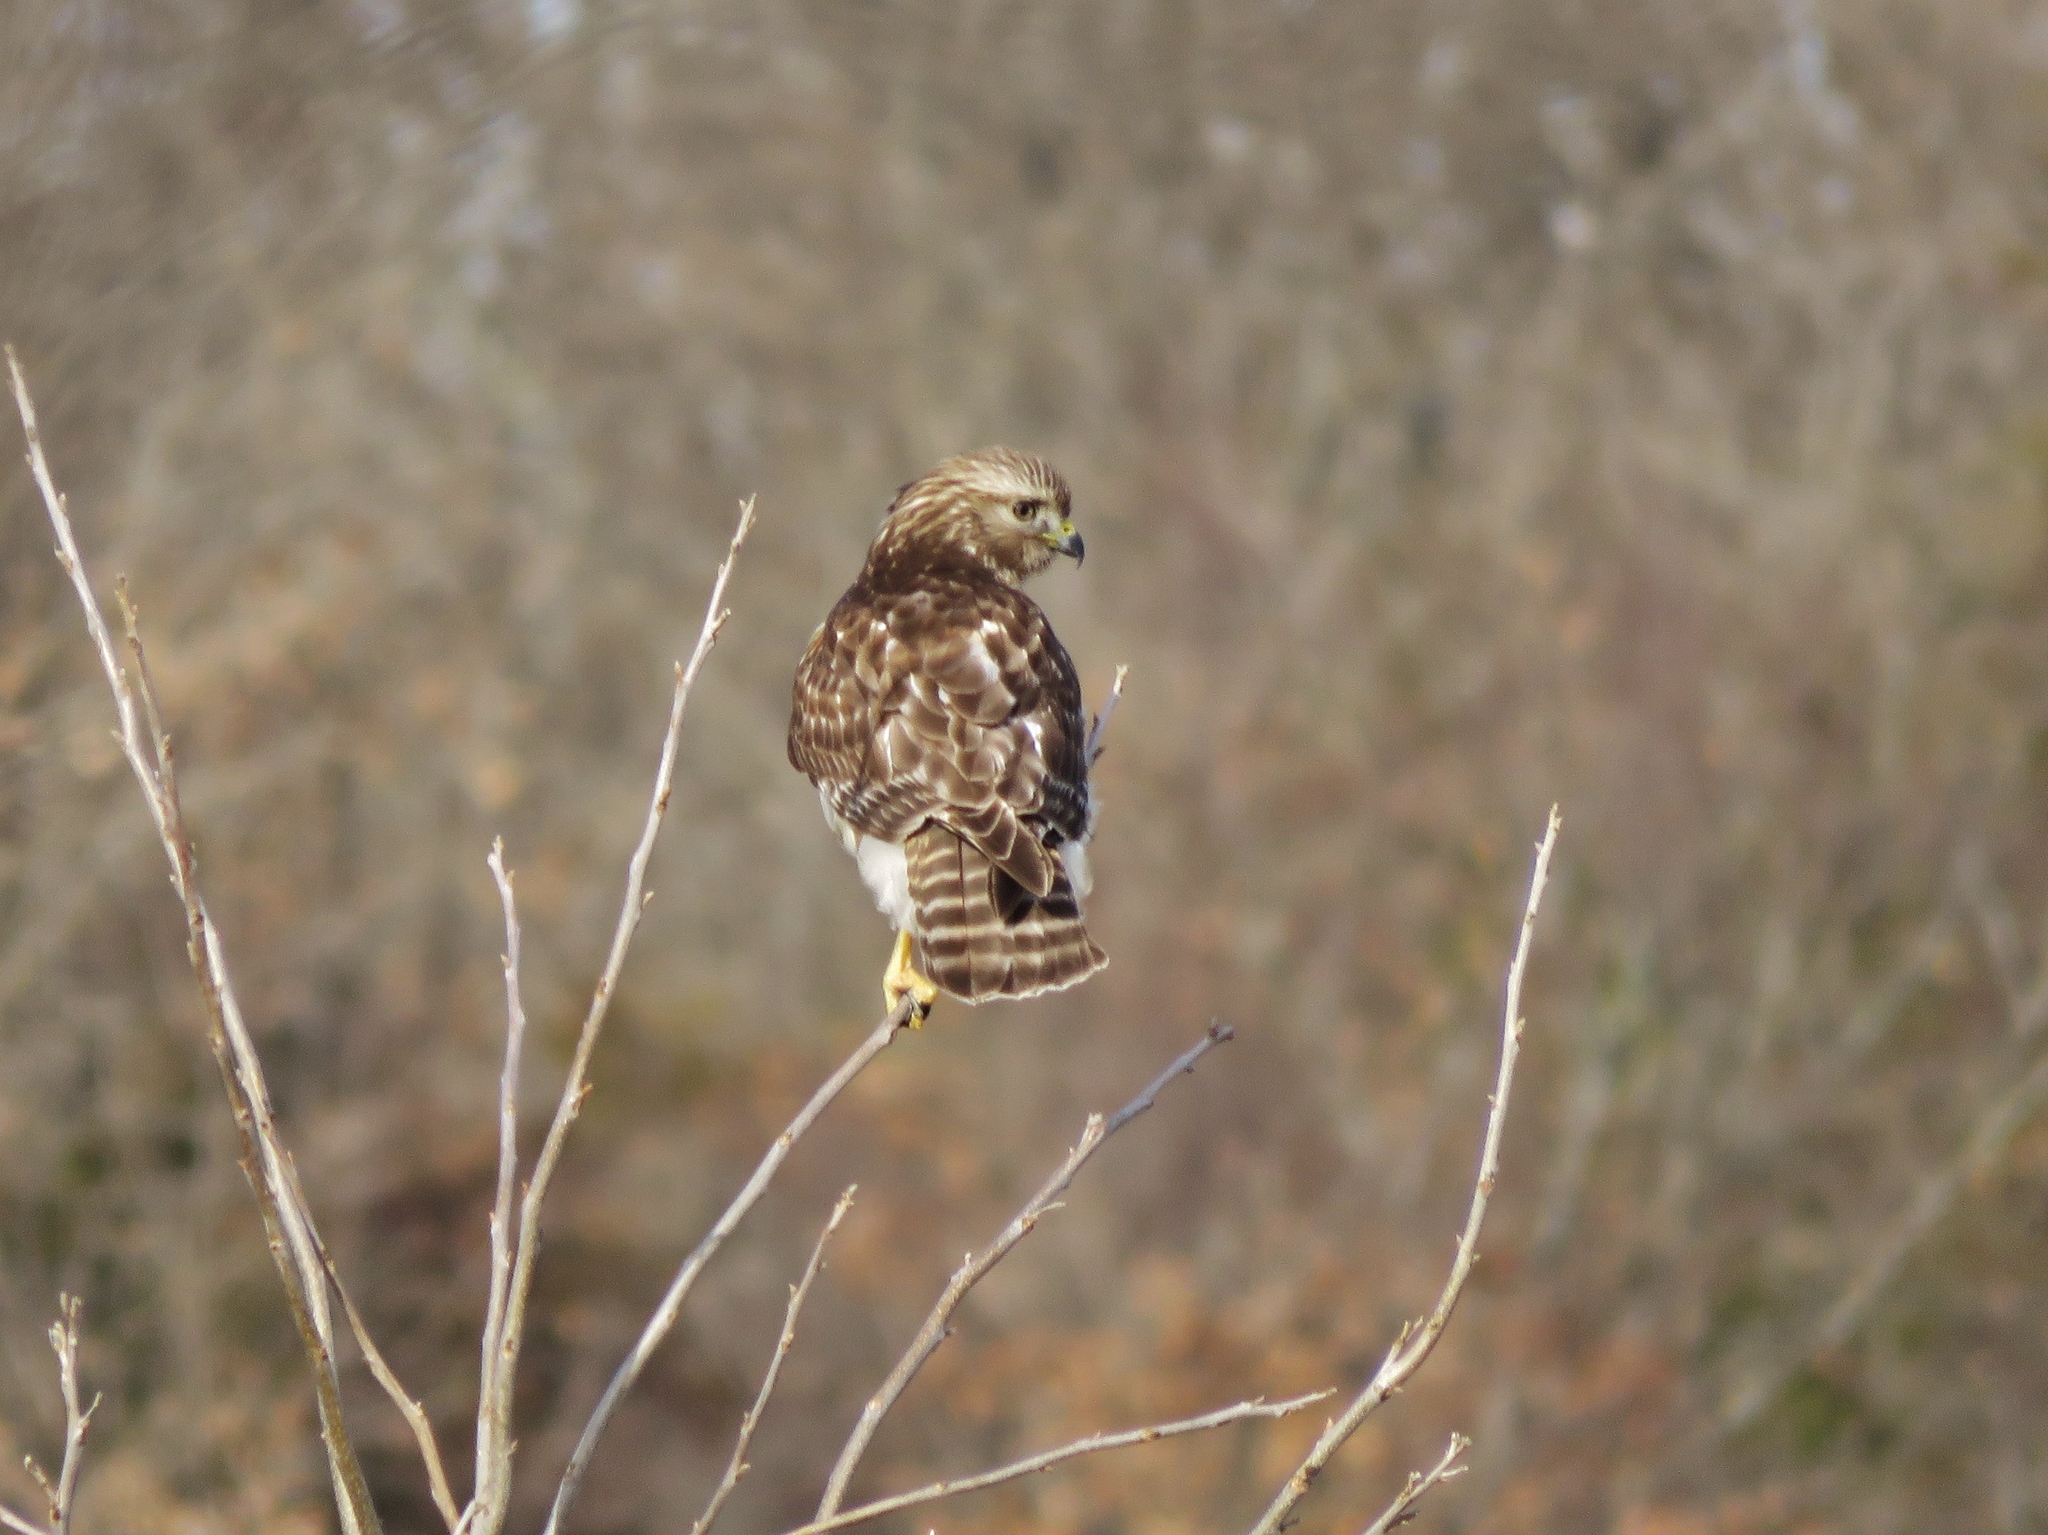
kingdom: Animalia
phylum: Chordata
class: Aves
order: Accipitriformes
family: Accipitridae
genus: Buteo
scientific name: Buteo lineatus
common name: Red-shouldered hawk
